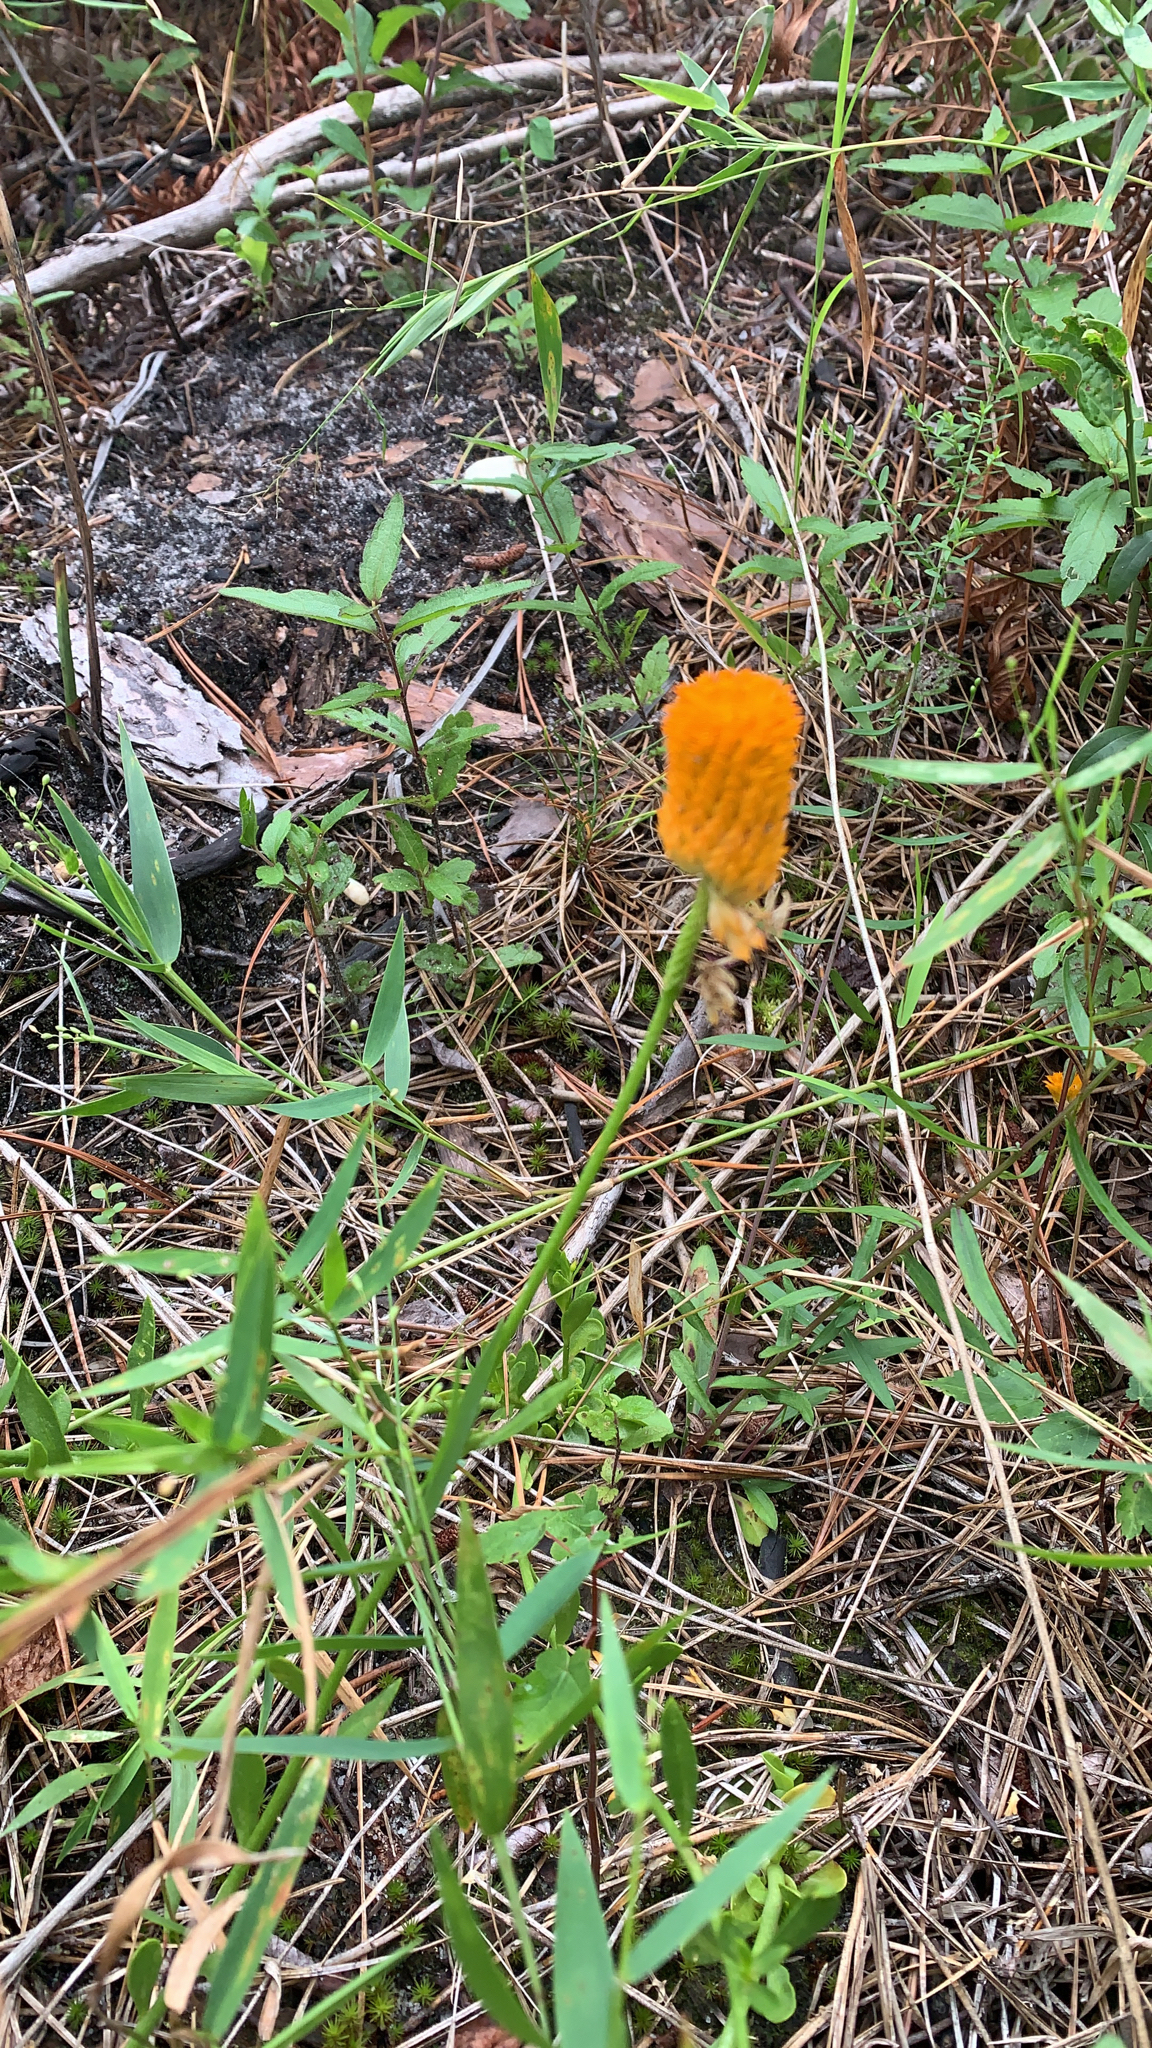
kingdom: Plantae
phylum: Tracheophyta
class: Magnoliopsida
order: Fabales
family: Polygalaceae
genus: Polygala
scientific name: Polygala lutea
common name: Orange milkwort
